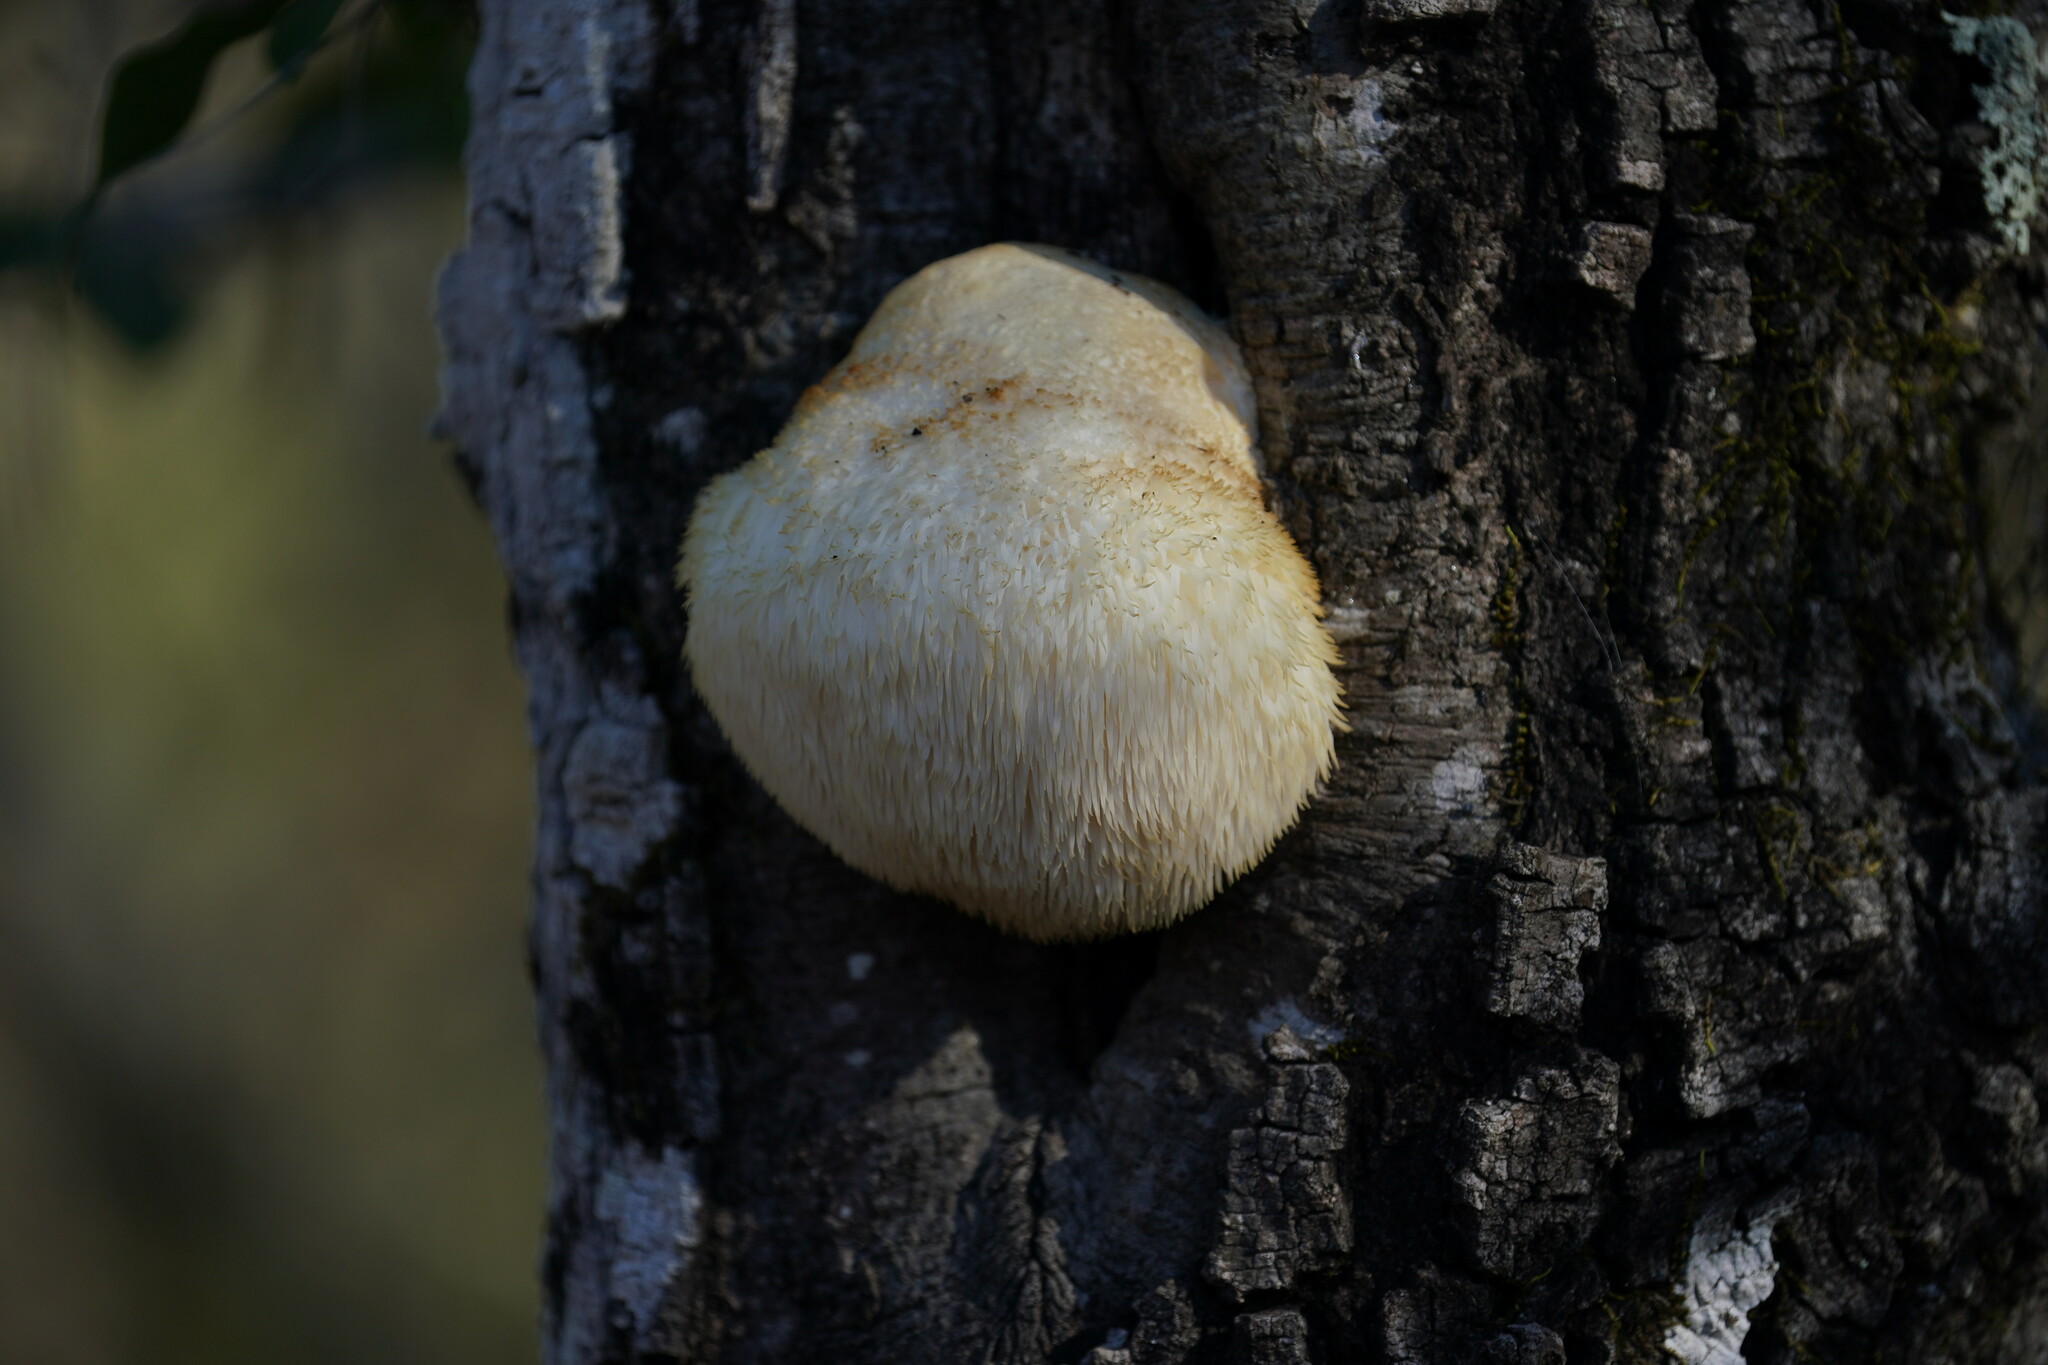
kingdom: Fungi
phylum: Basidiomycota
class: Agaricomycetes
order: Russulales
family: Hericiaceae
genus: Hericium
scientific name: Hericium erinaceus
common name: Bearded tooth
